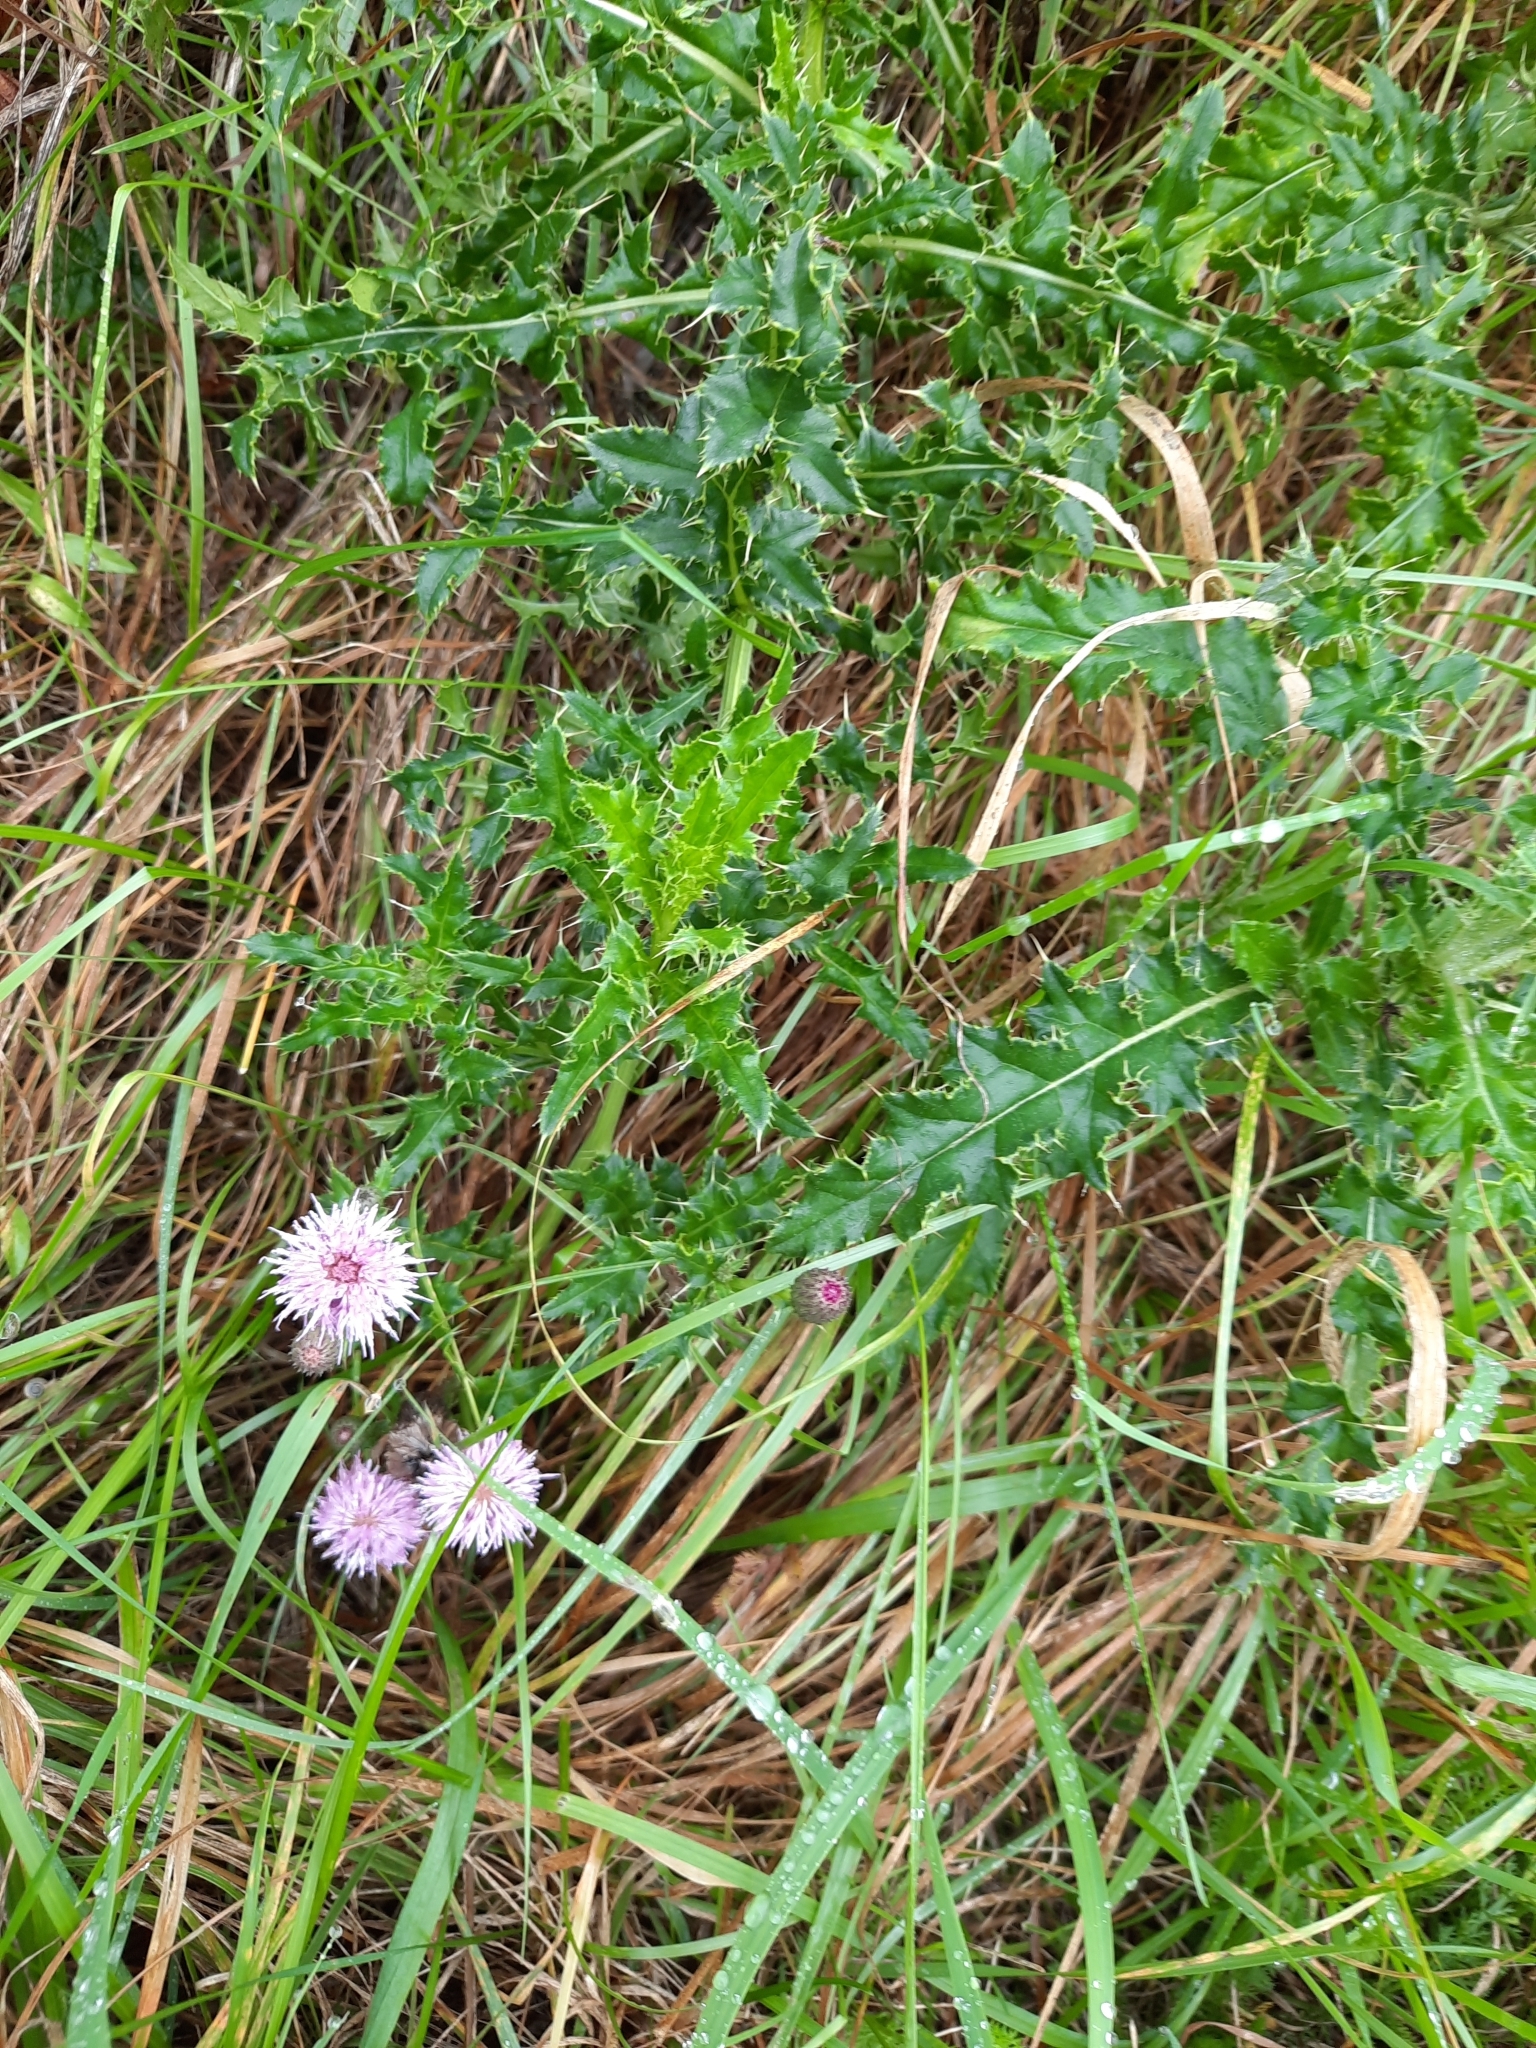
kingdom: Plantae
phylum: Tracheophyta
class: Magnoliopsida
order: Asterales
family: Asteraceae
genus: Cirsium
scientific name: Cirsium arvense
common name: Creeping thistle
